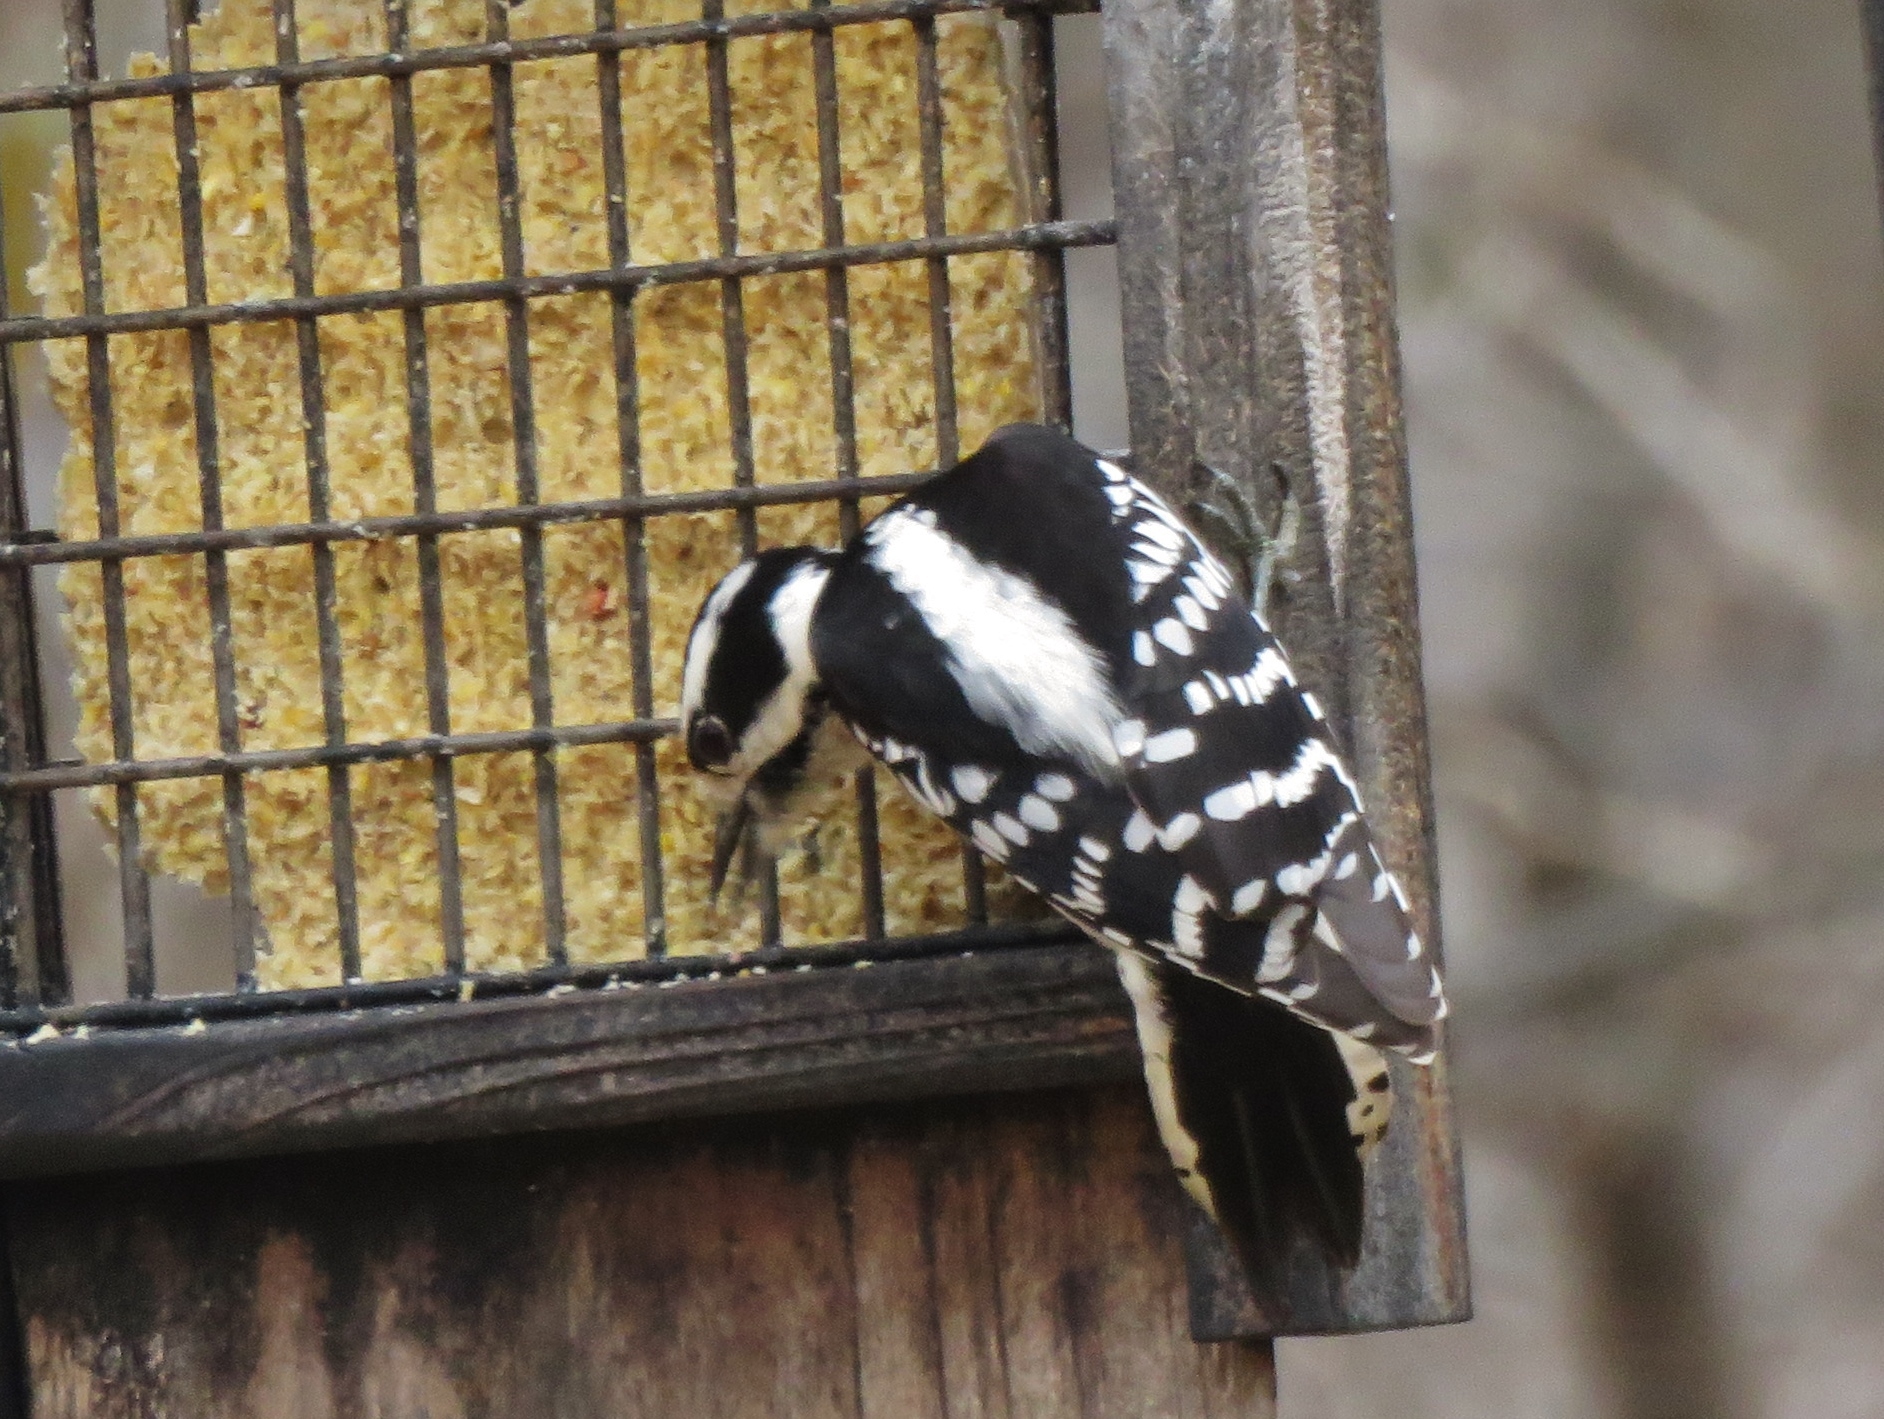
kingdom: Animalia
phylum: Chordata
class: Aves
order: Piciformes
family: Picidae
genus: Dryobates
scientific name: Dryobates pubescens
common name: Downy woodpecker
